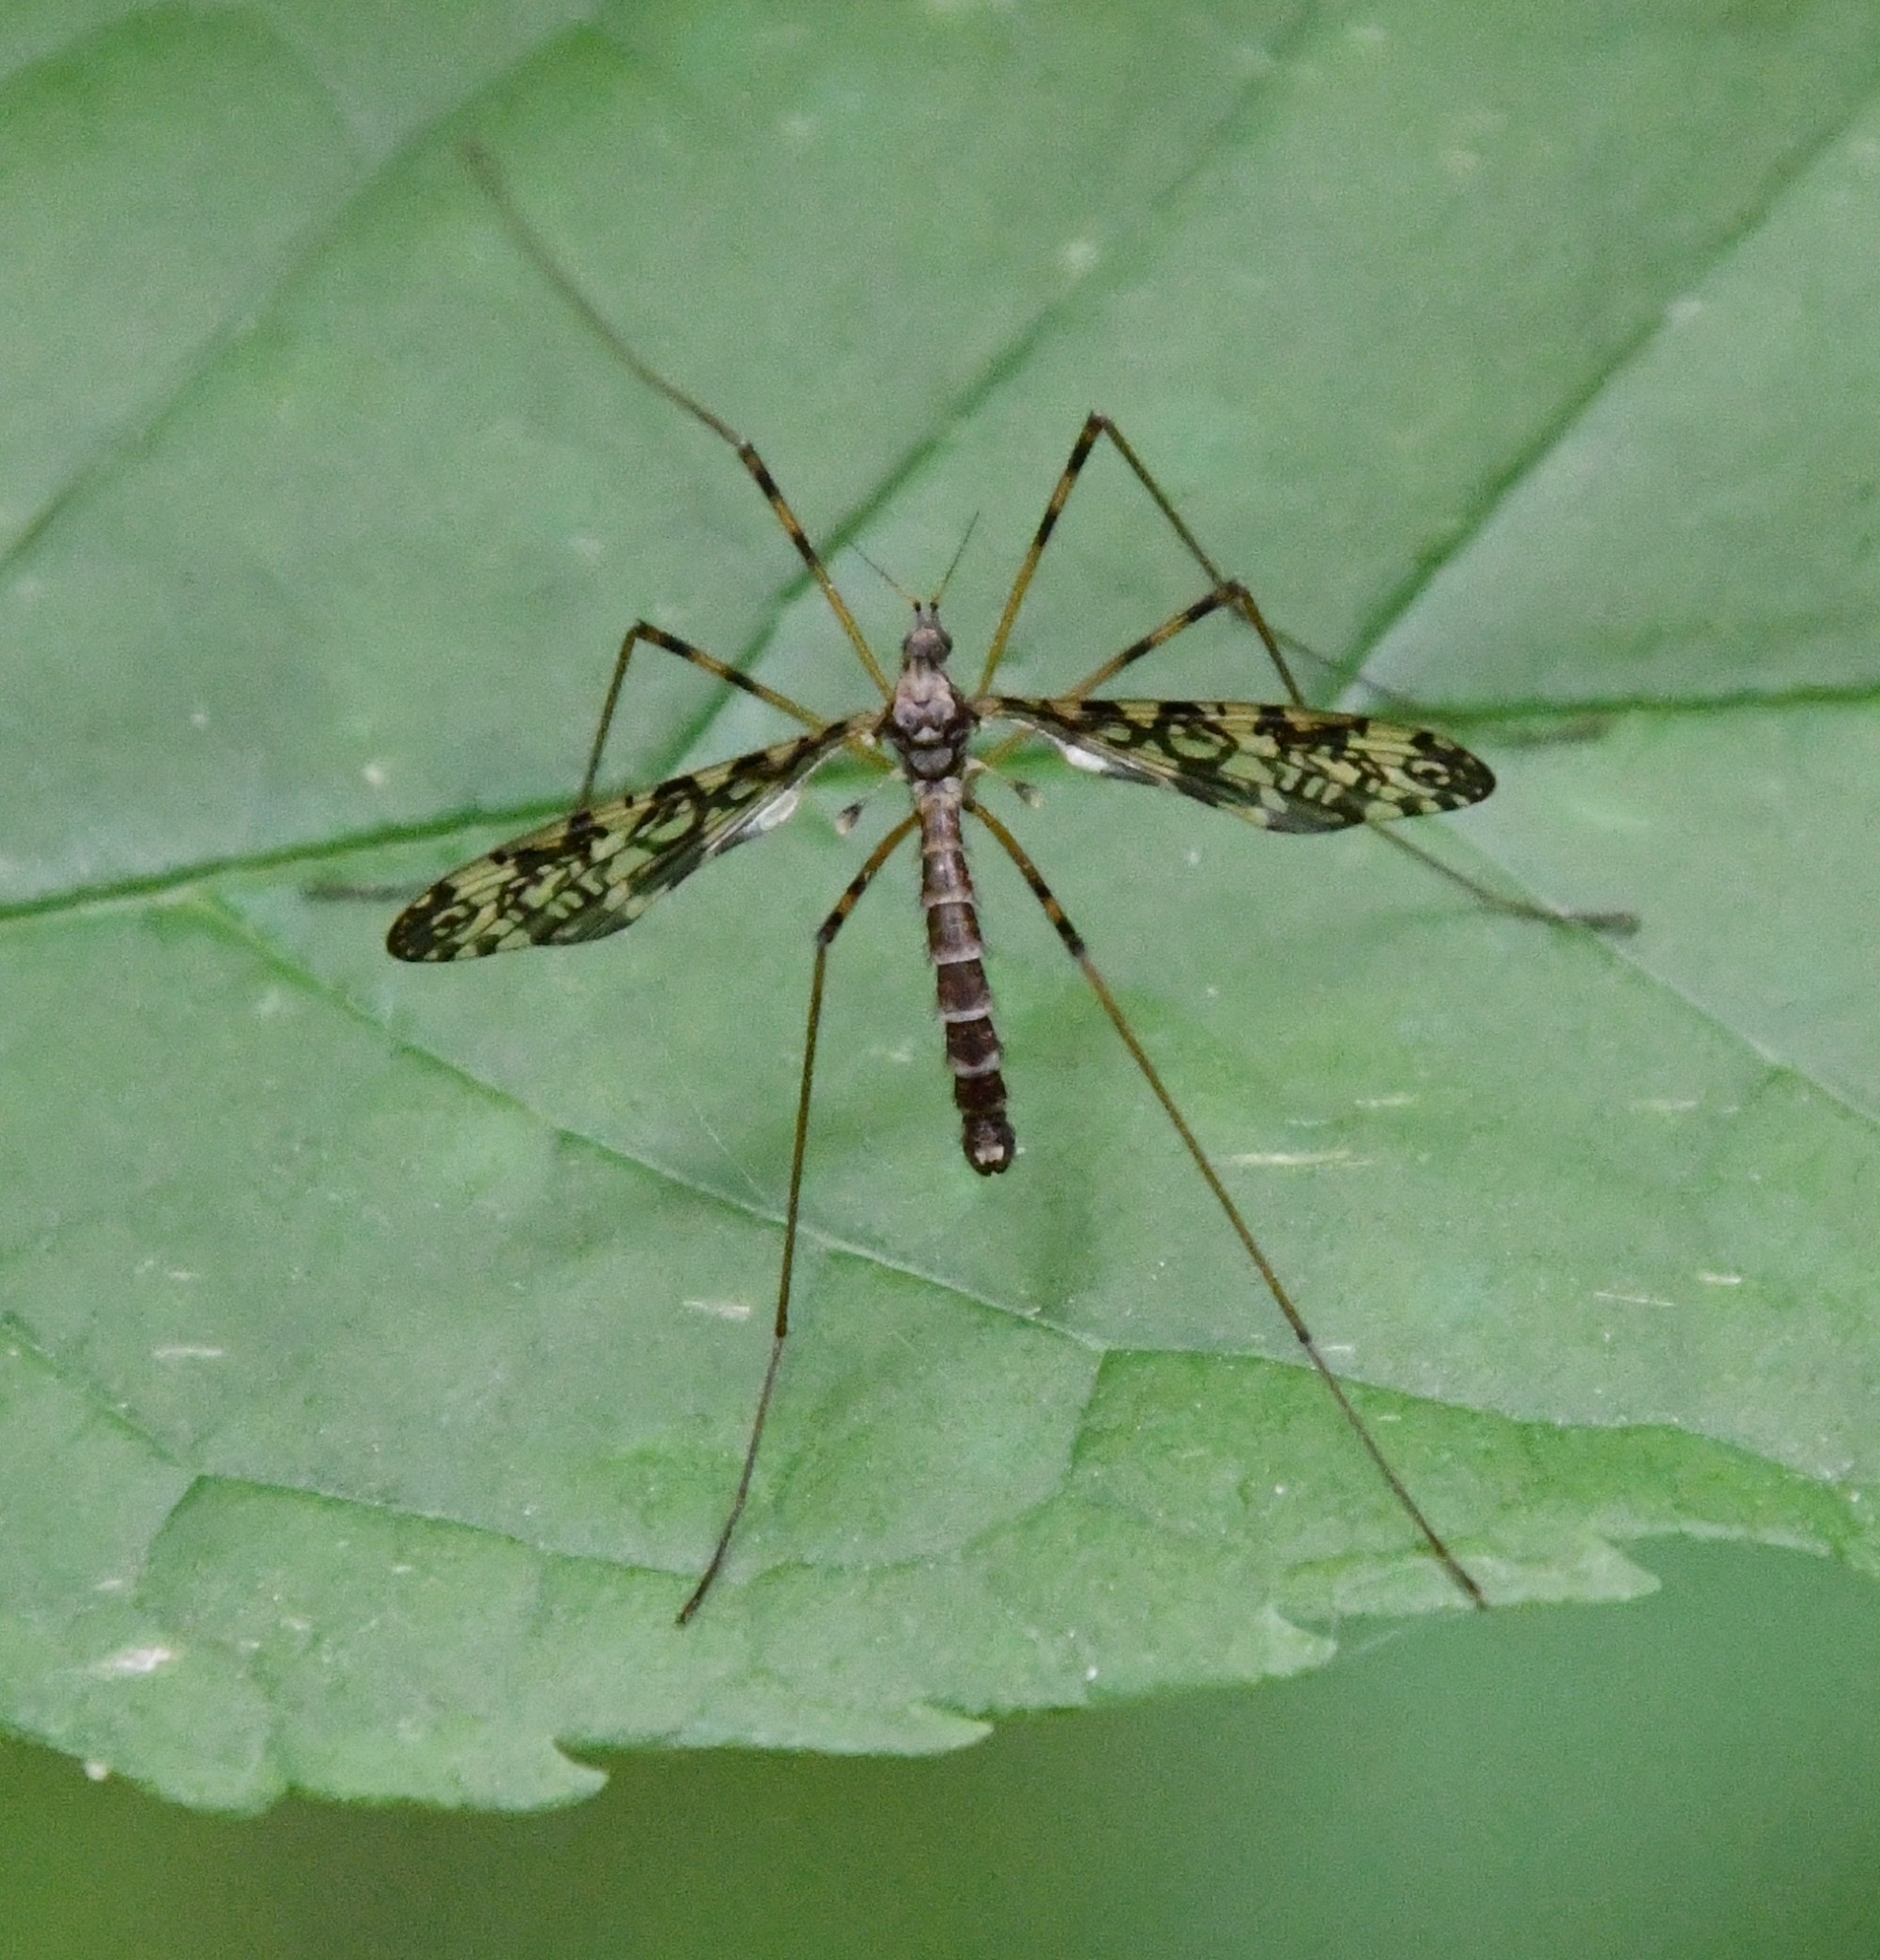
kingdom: Animalia
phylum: Arthropoda
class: Insecta
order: Diptera
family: Limoniidae
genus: Epiphragma
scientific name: Epiphragma ocellare
